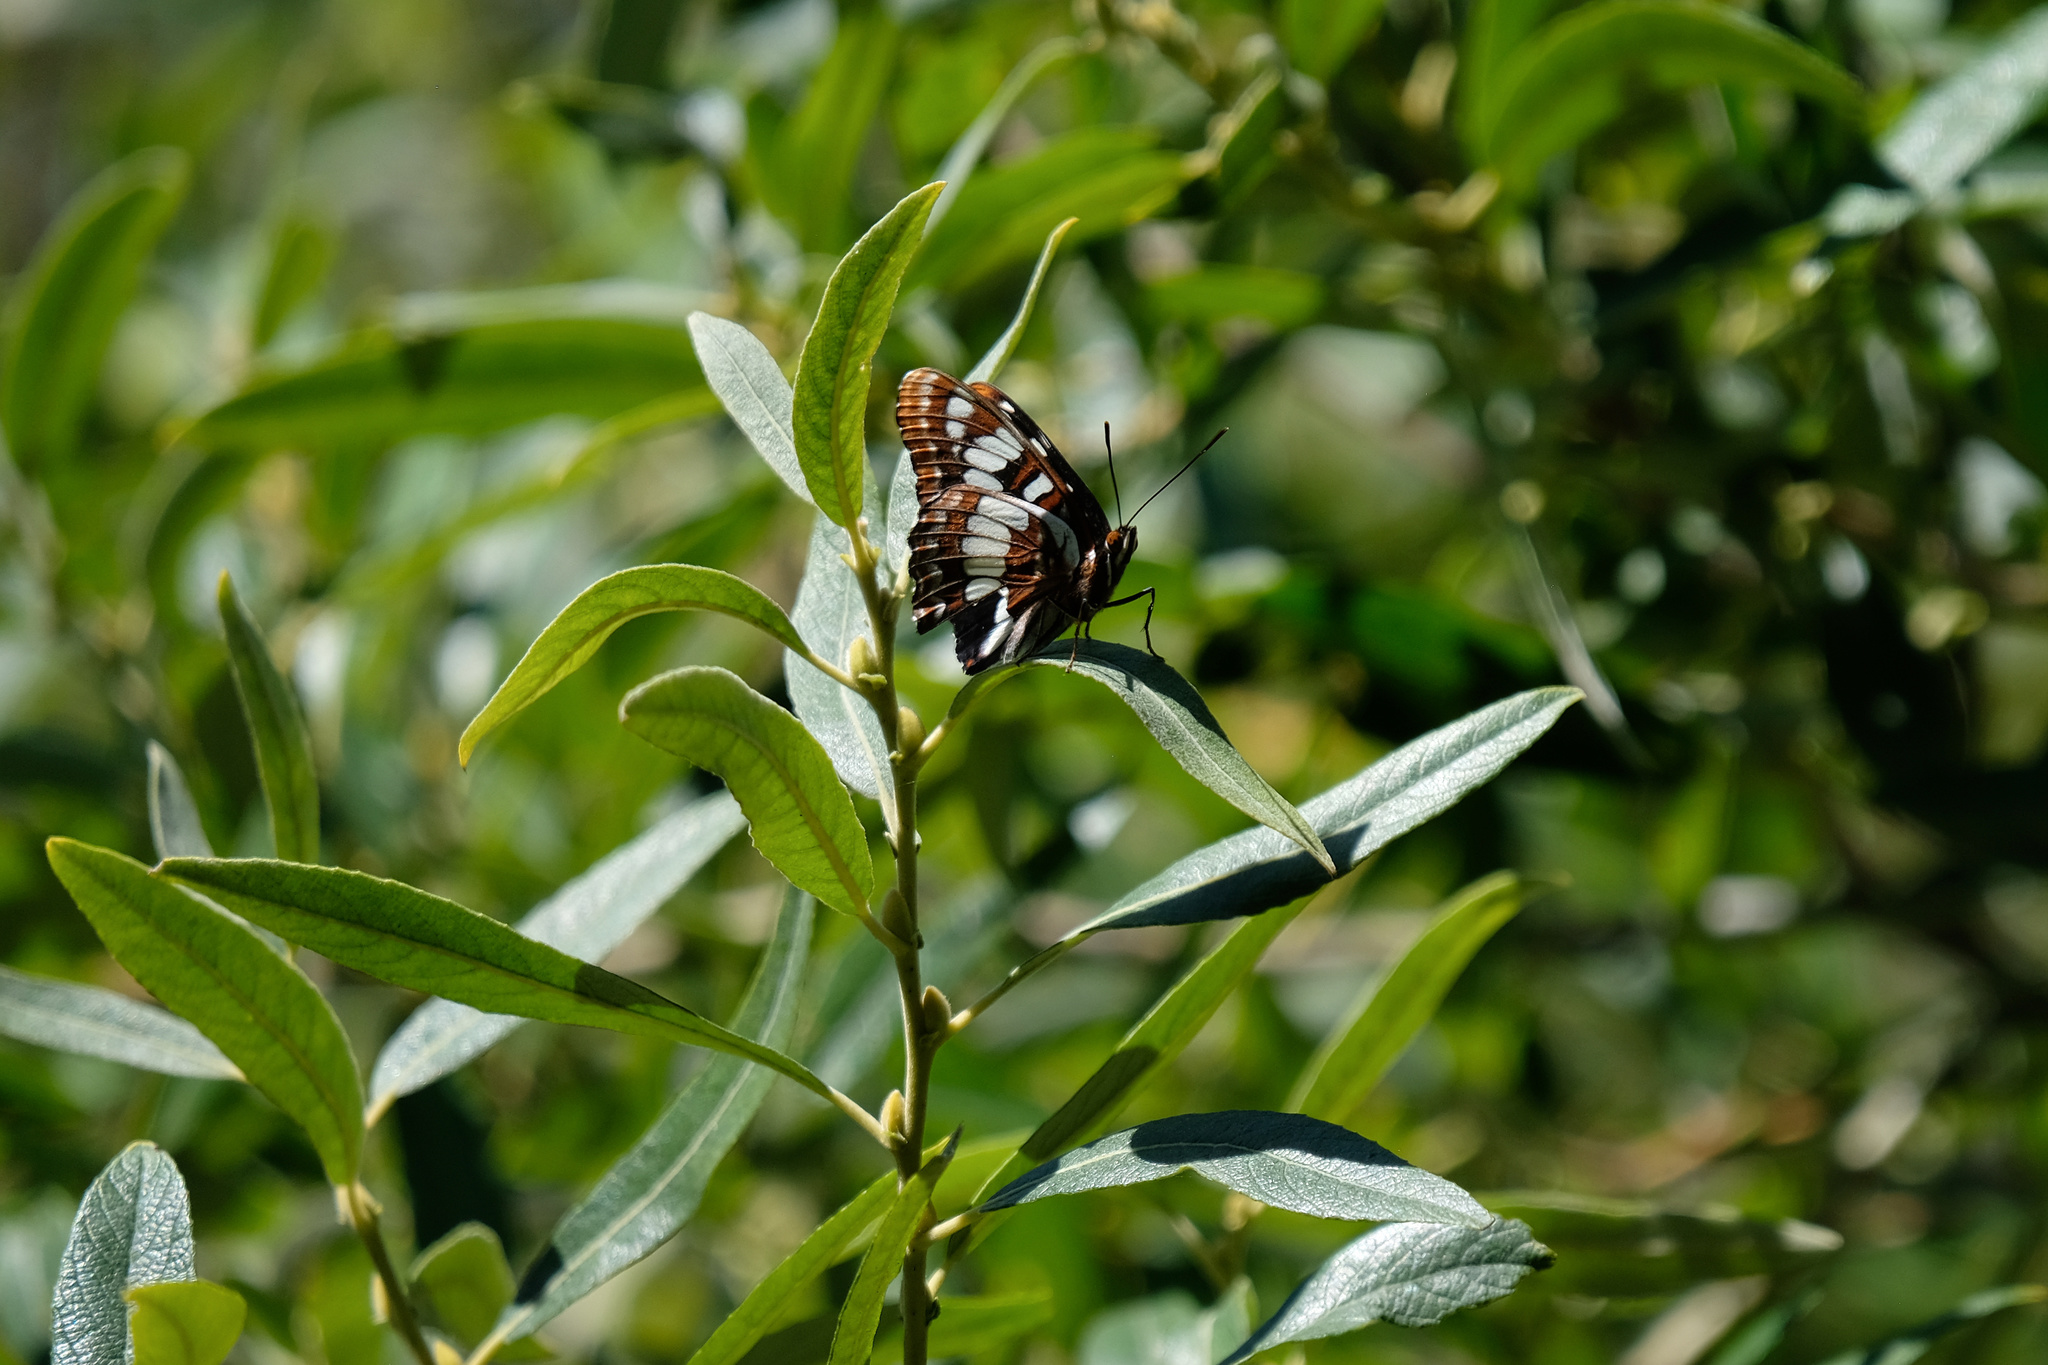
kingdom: Animalia
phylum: Arthropoda
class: Insecta
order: Lepidoptera
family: Nymphalidae
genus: Limenitis
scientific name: Limenitis lorquini
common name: Lorquin's admiral
